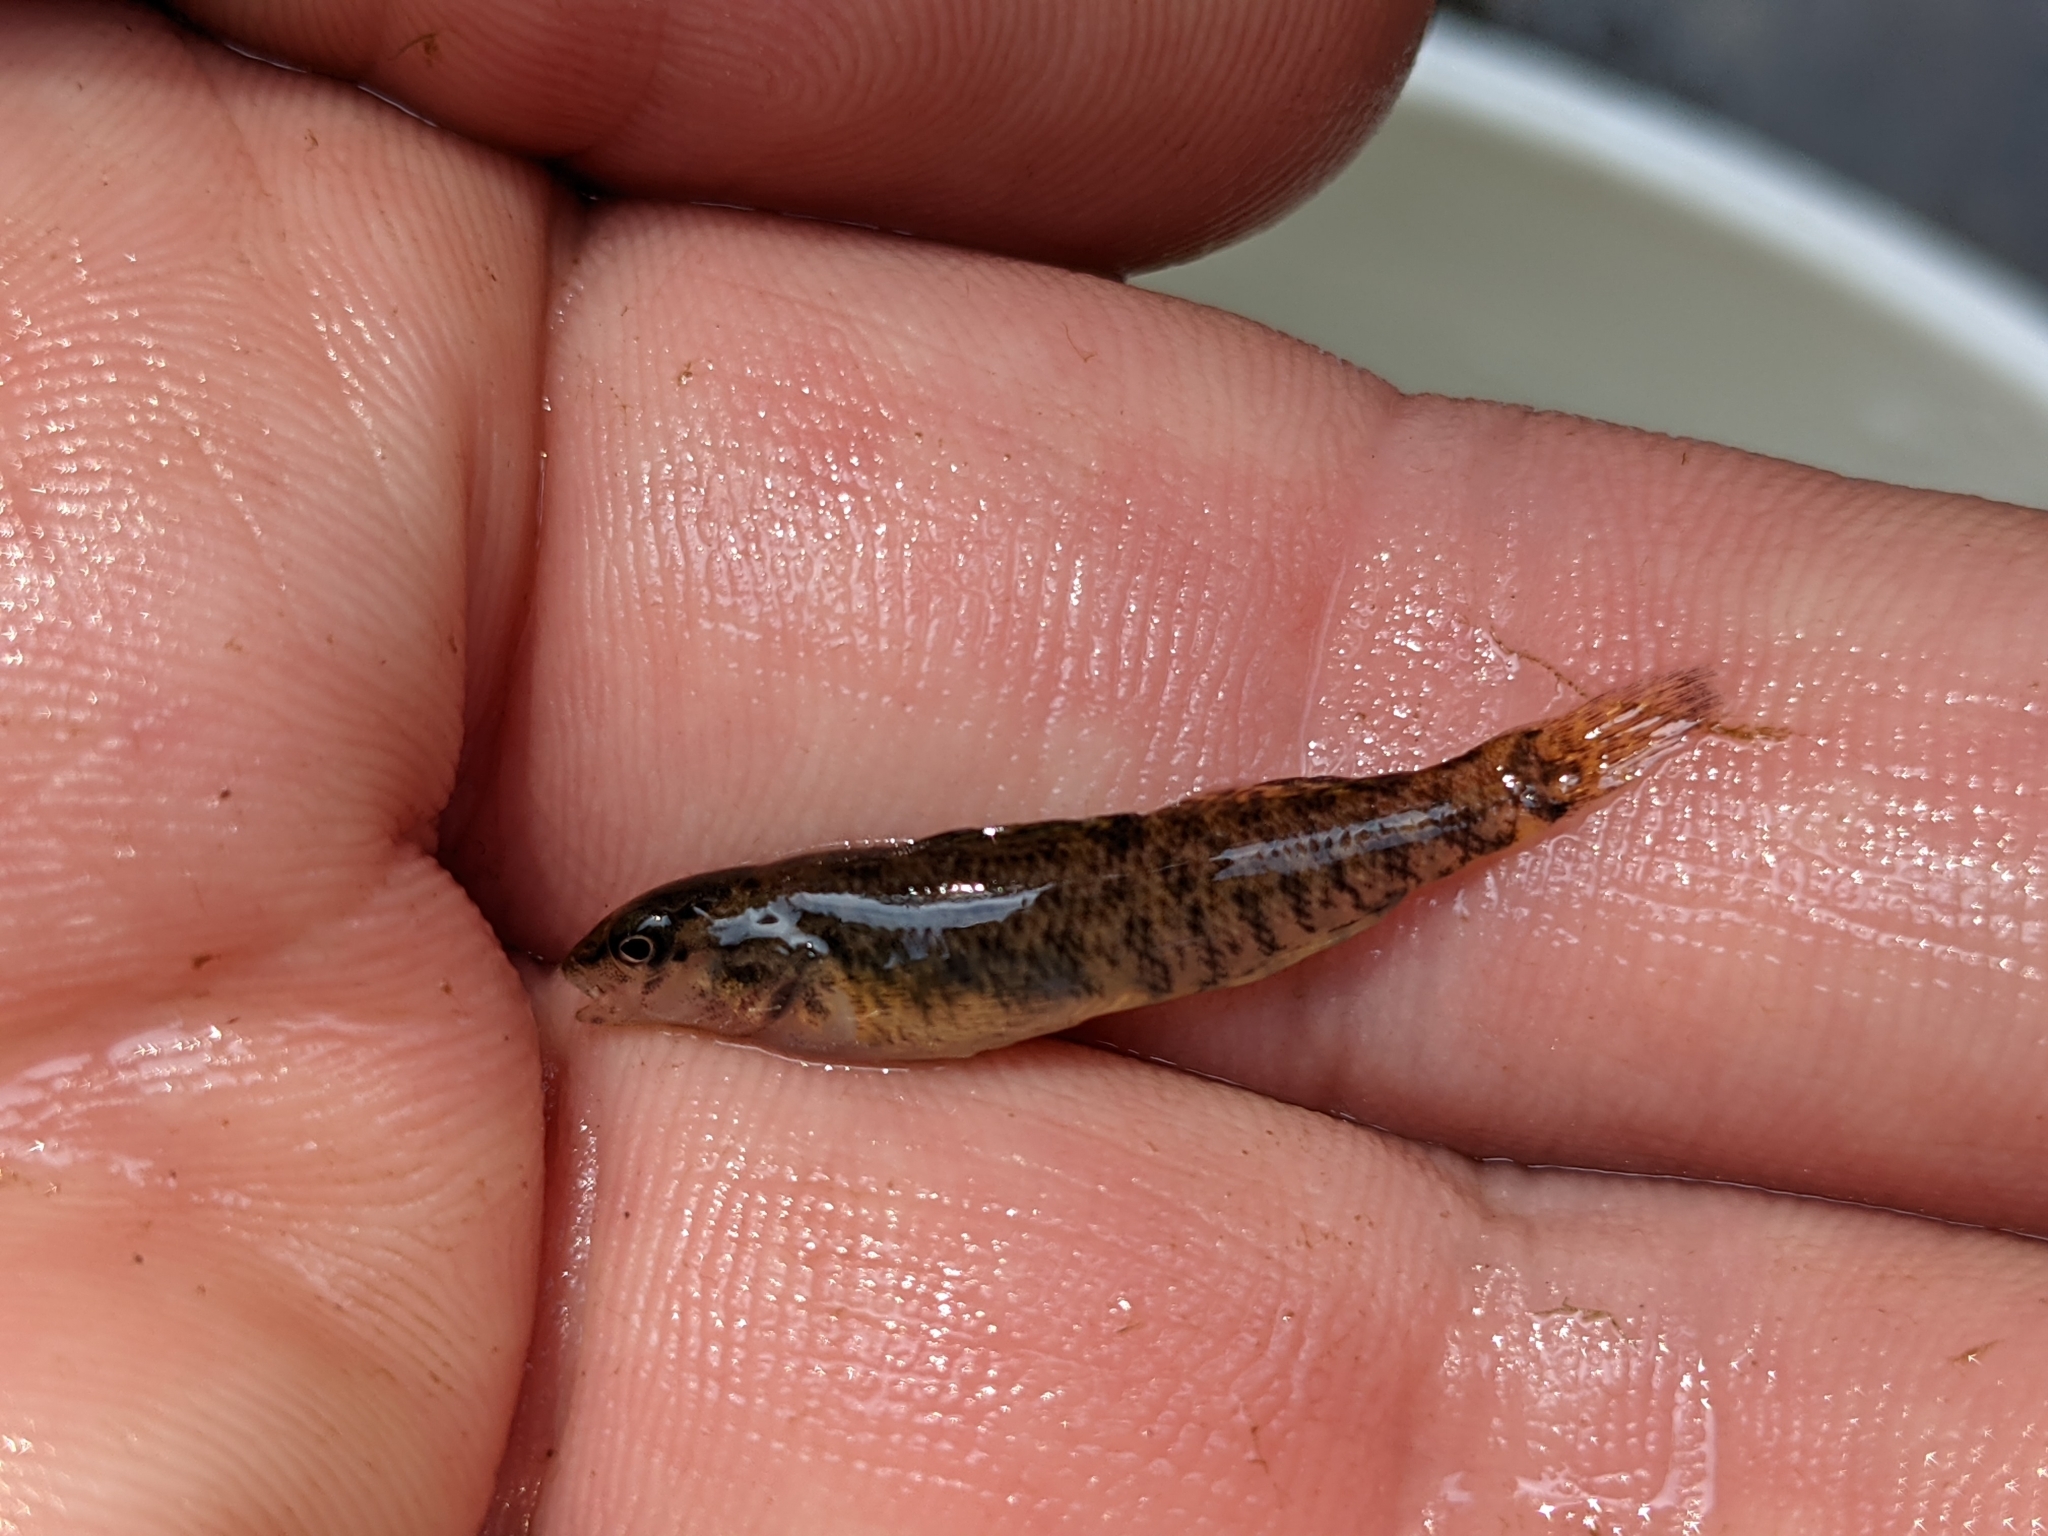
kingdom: Animalia
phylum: Chordata
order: Perciformes
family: Percidae
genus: Etheostoma
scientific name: Etheostoma caeruleum
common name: Rainbow darter
